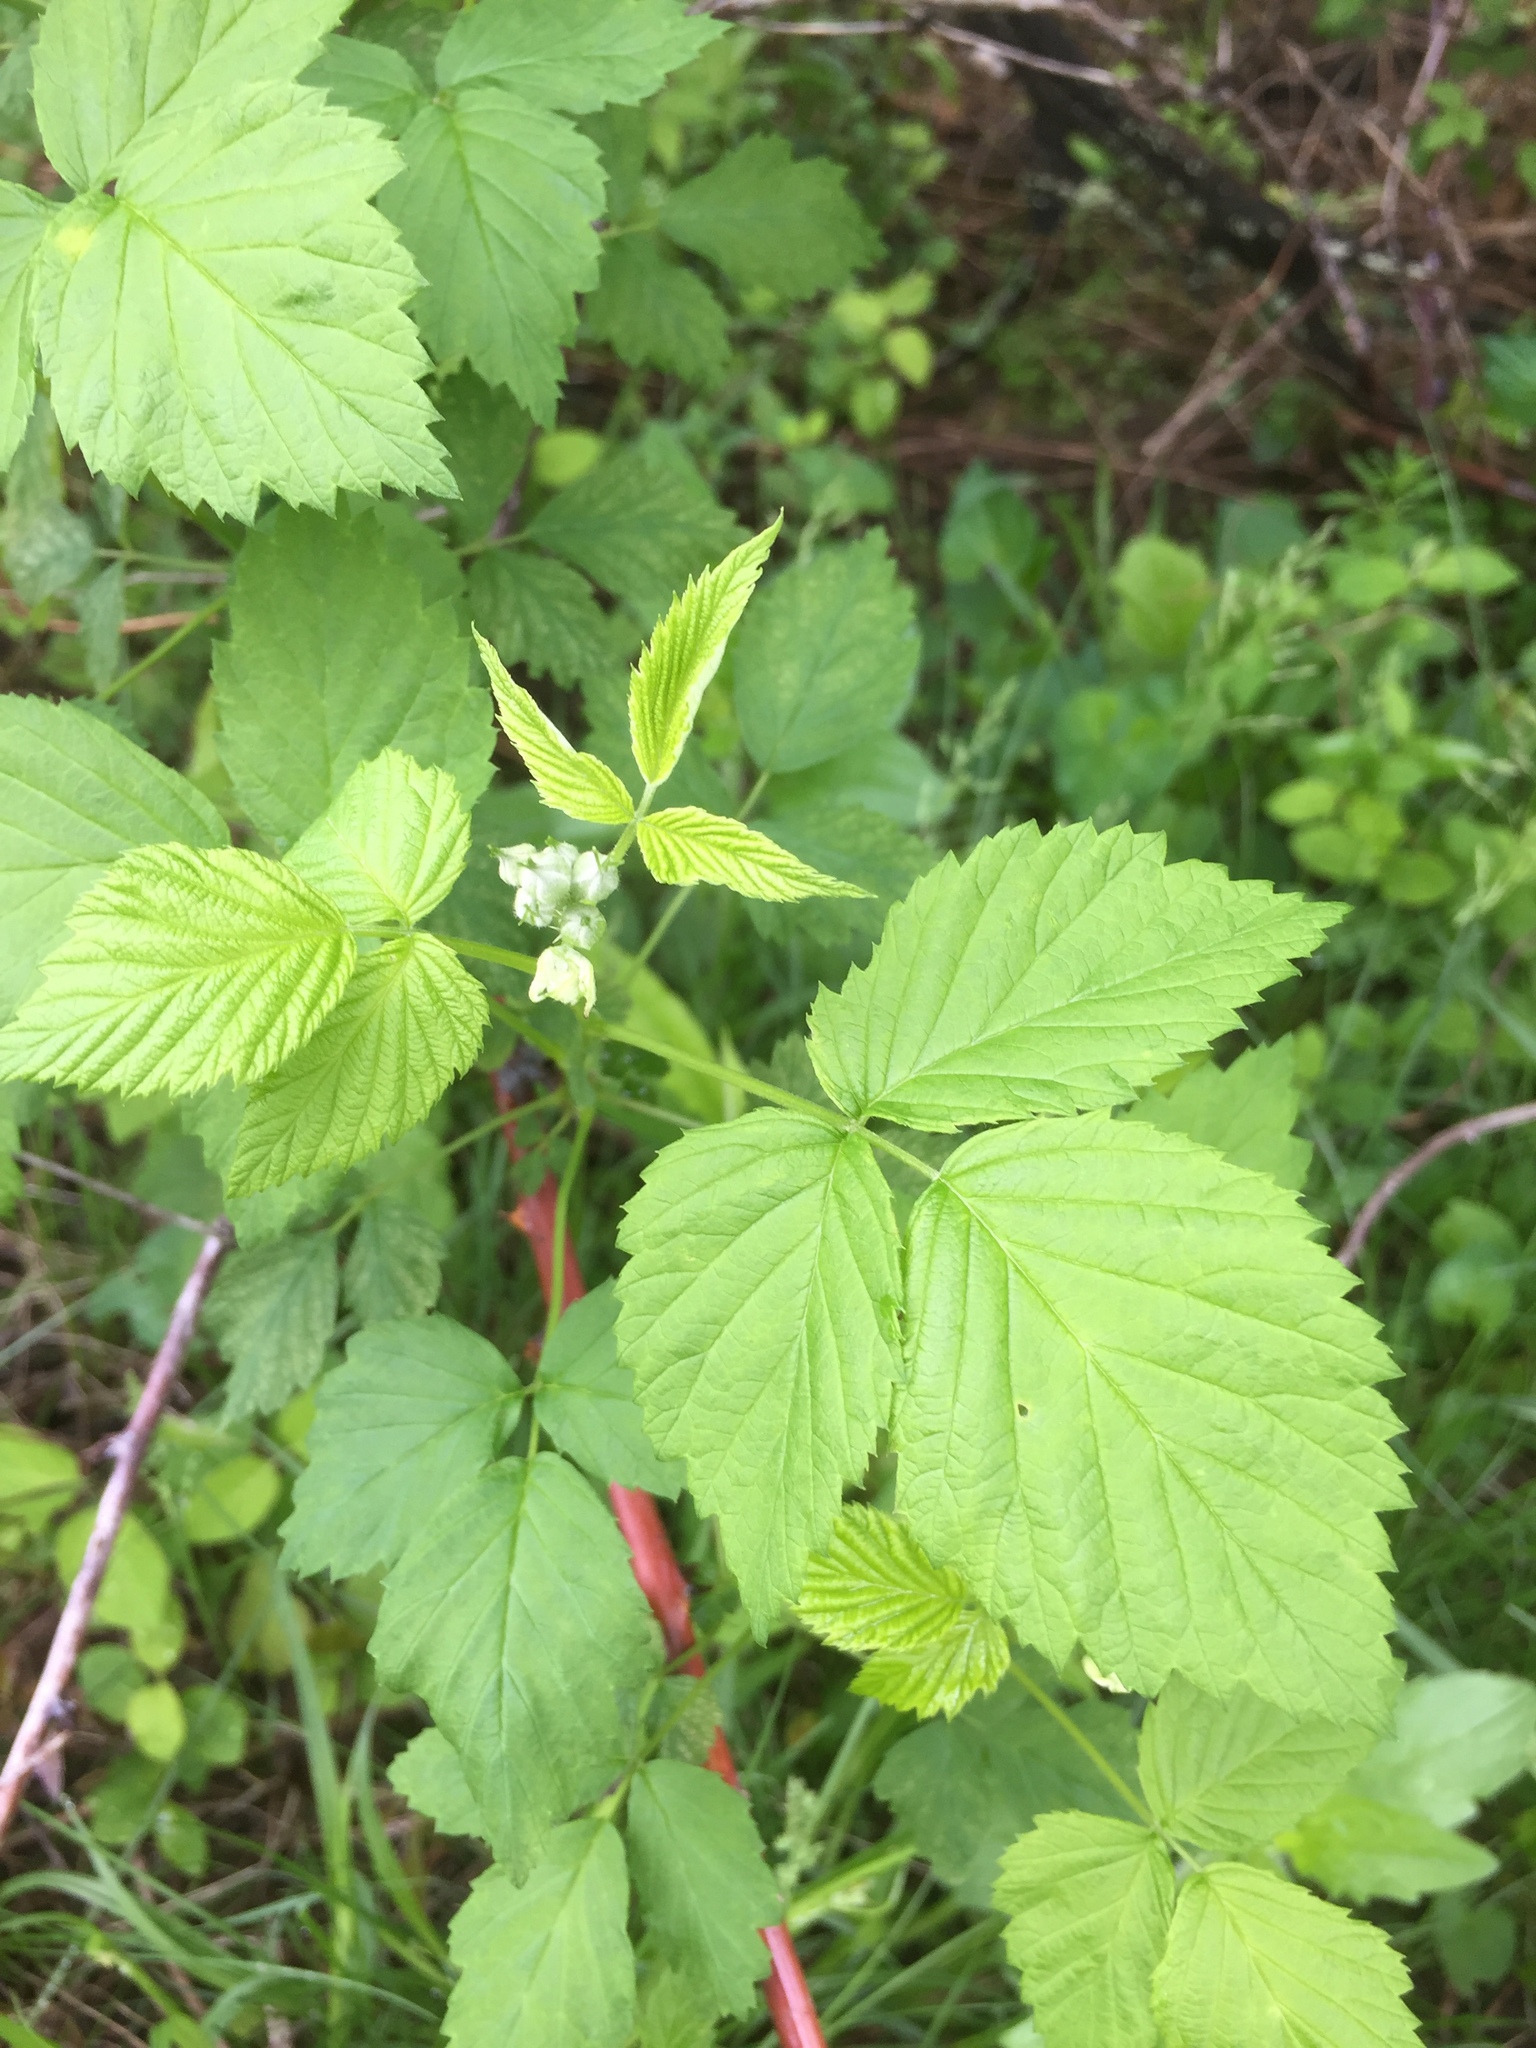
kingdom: Plantae
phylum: Tracheophyta
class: Magnoliopsida
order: Rosales
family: Rosaceae
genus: Rubus
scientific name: Rubus occidentalis
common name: Black raspberry
